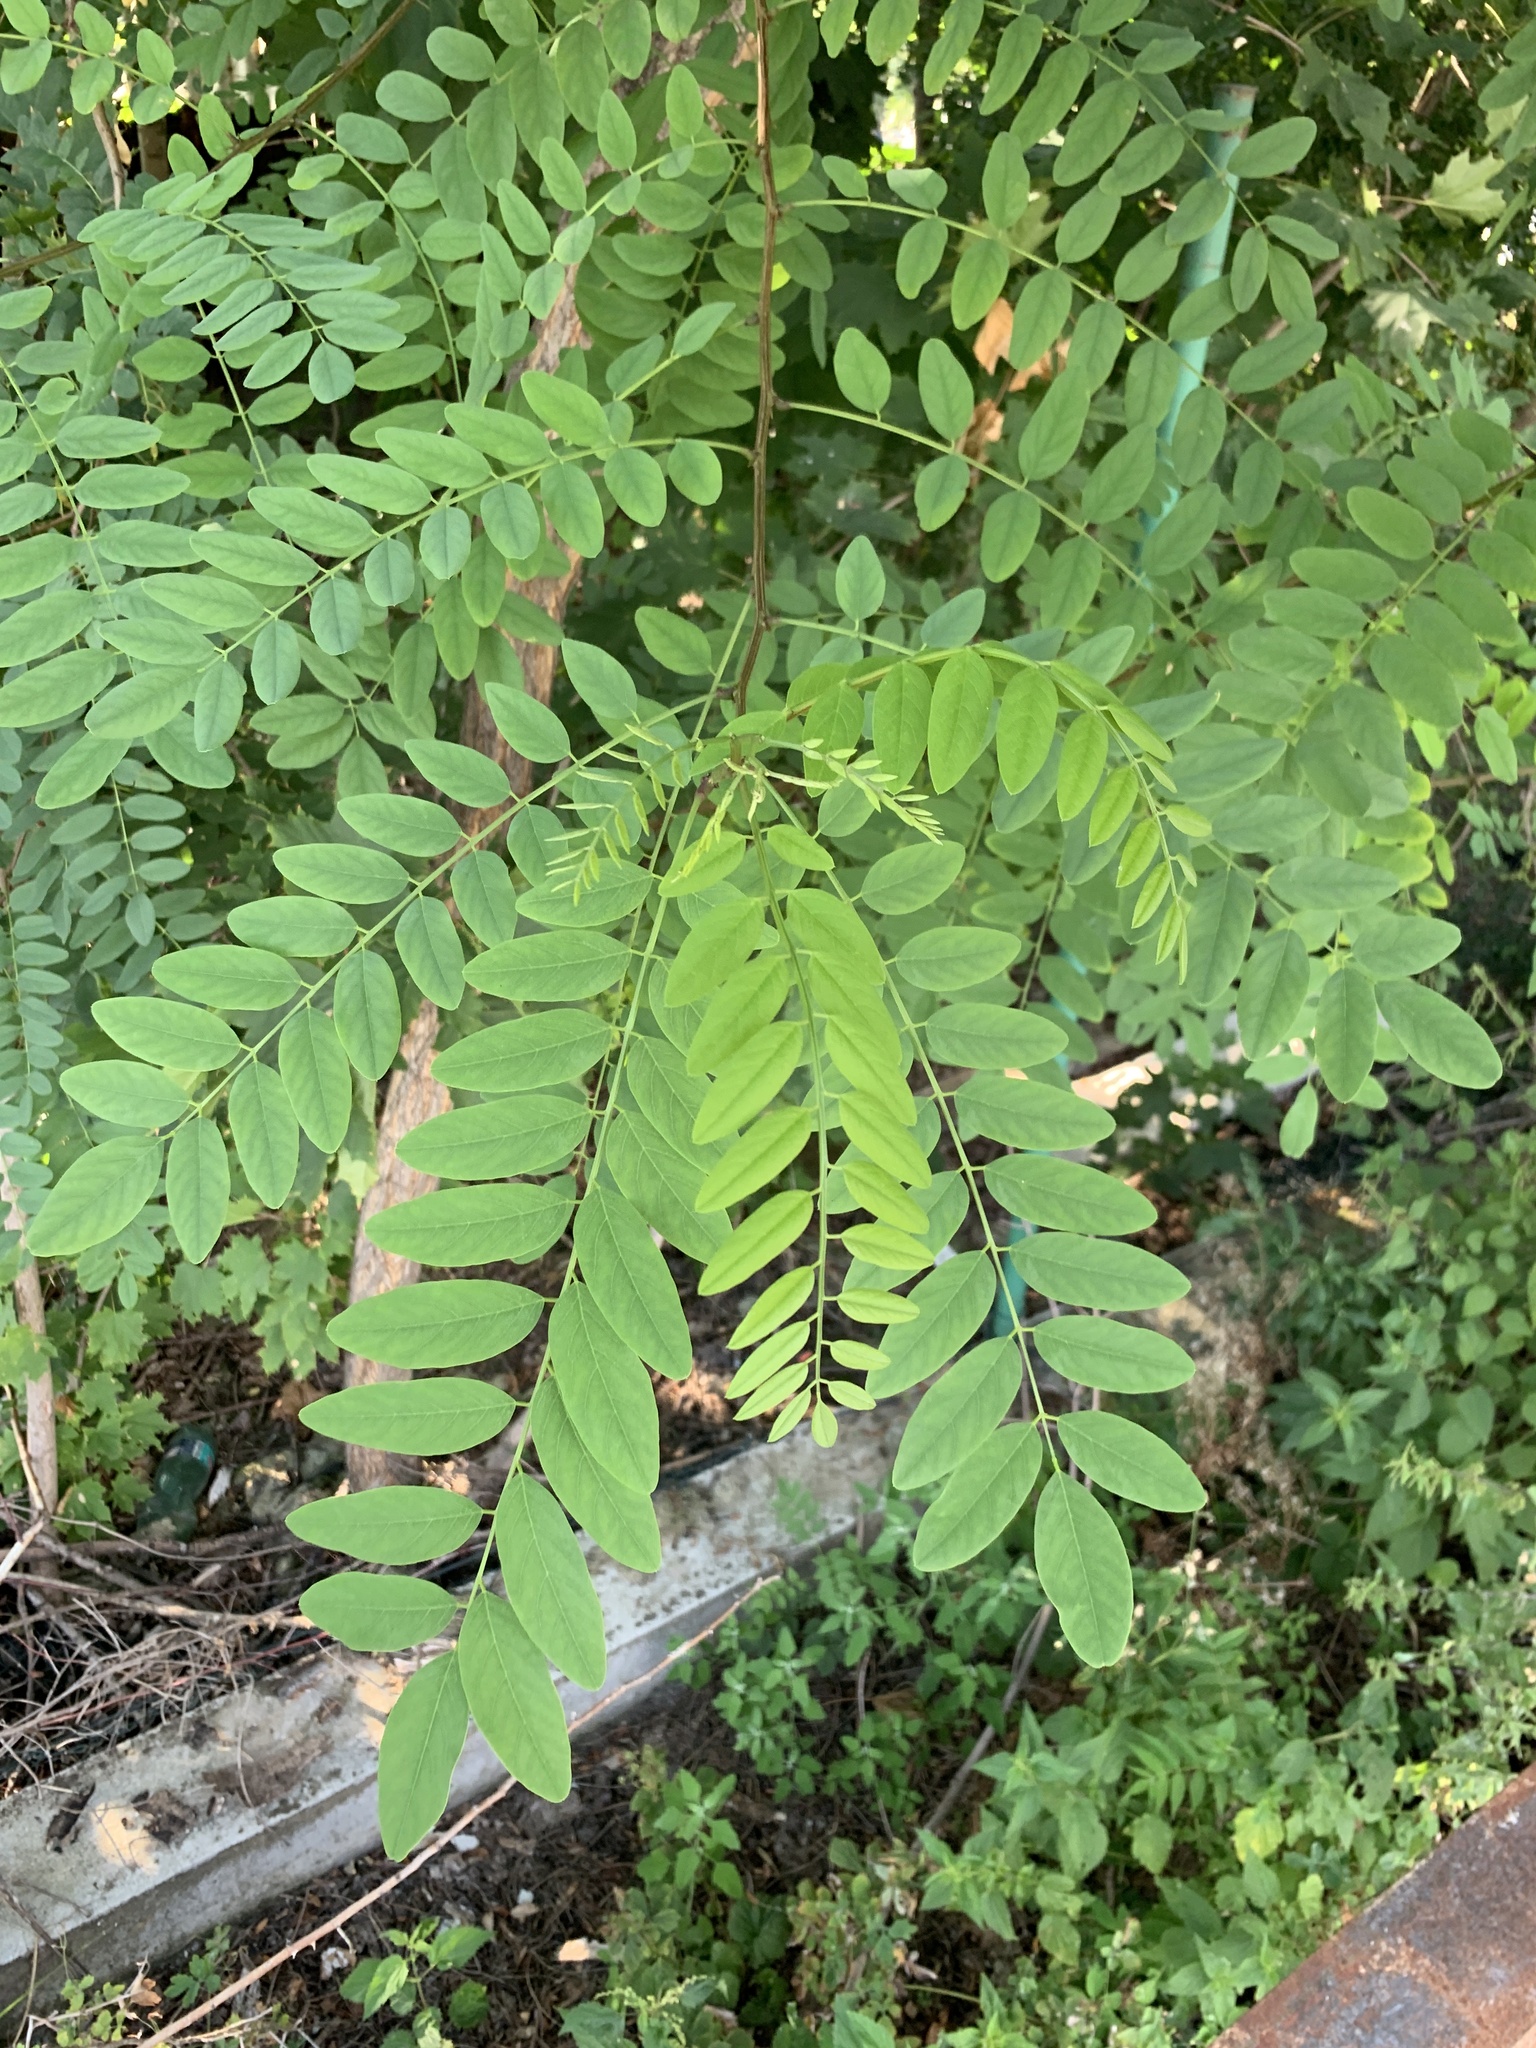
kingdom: Plantae
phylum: Tracheophyta
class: Magnoliopsida
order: Fabales
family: Fabaceae
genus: Robinia
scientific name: Robinia pseudoacacia
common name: Black locust
